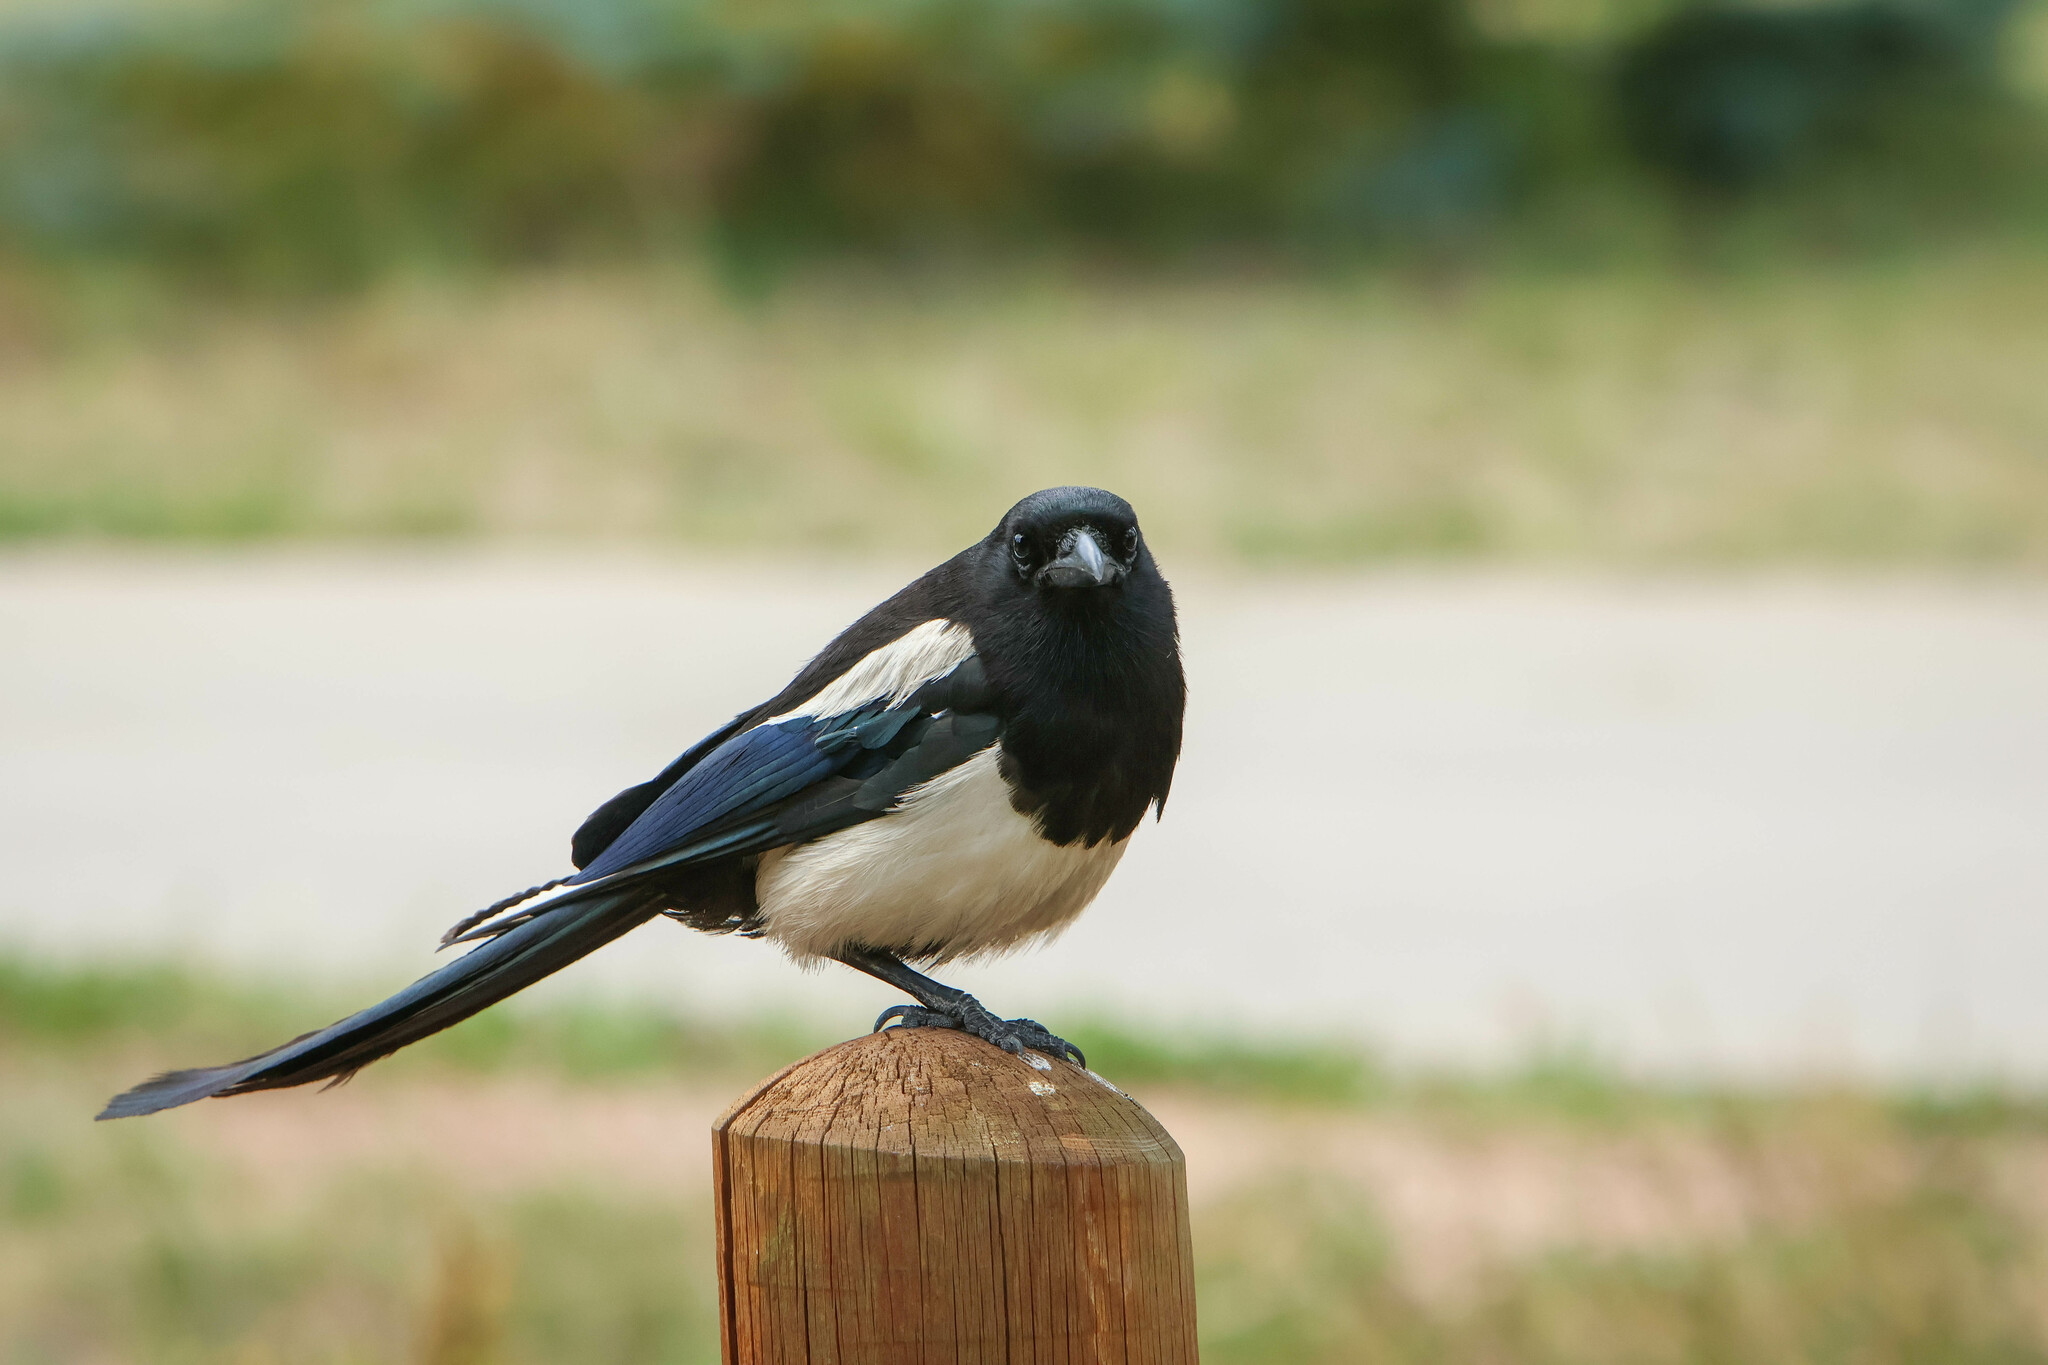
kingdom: Animalia
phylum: Chordata
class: Aves
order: Passeriformes
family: Corvidae
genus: Pica
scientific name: Pica hudsonia
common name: Black-billed magpie
